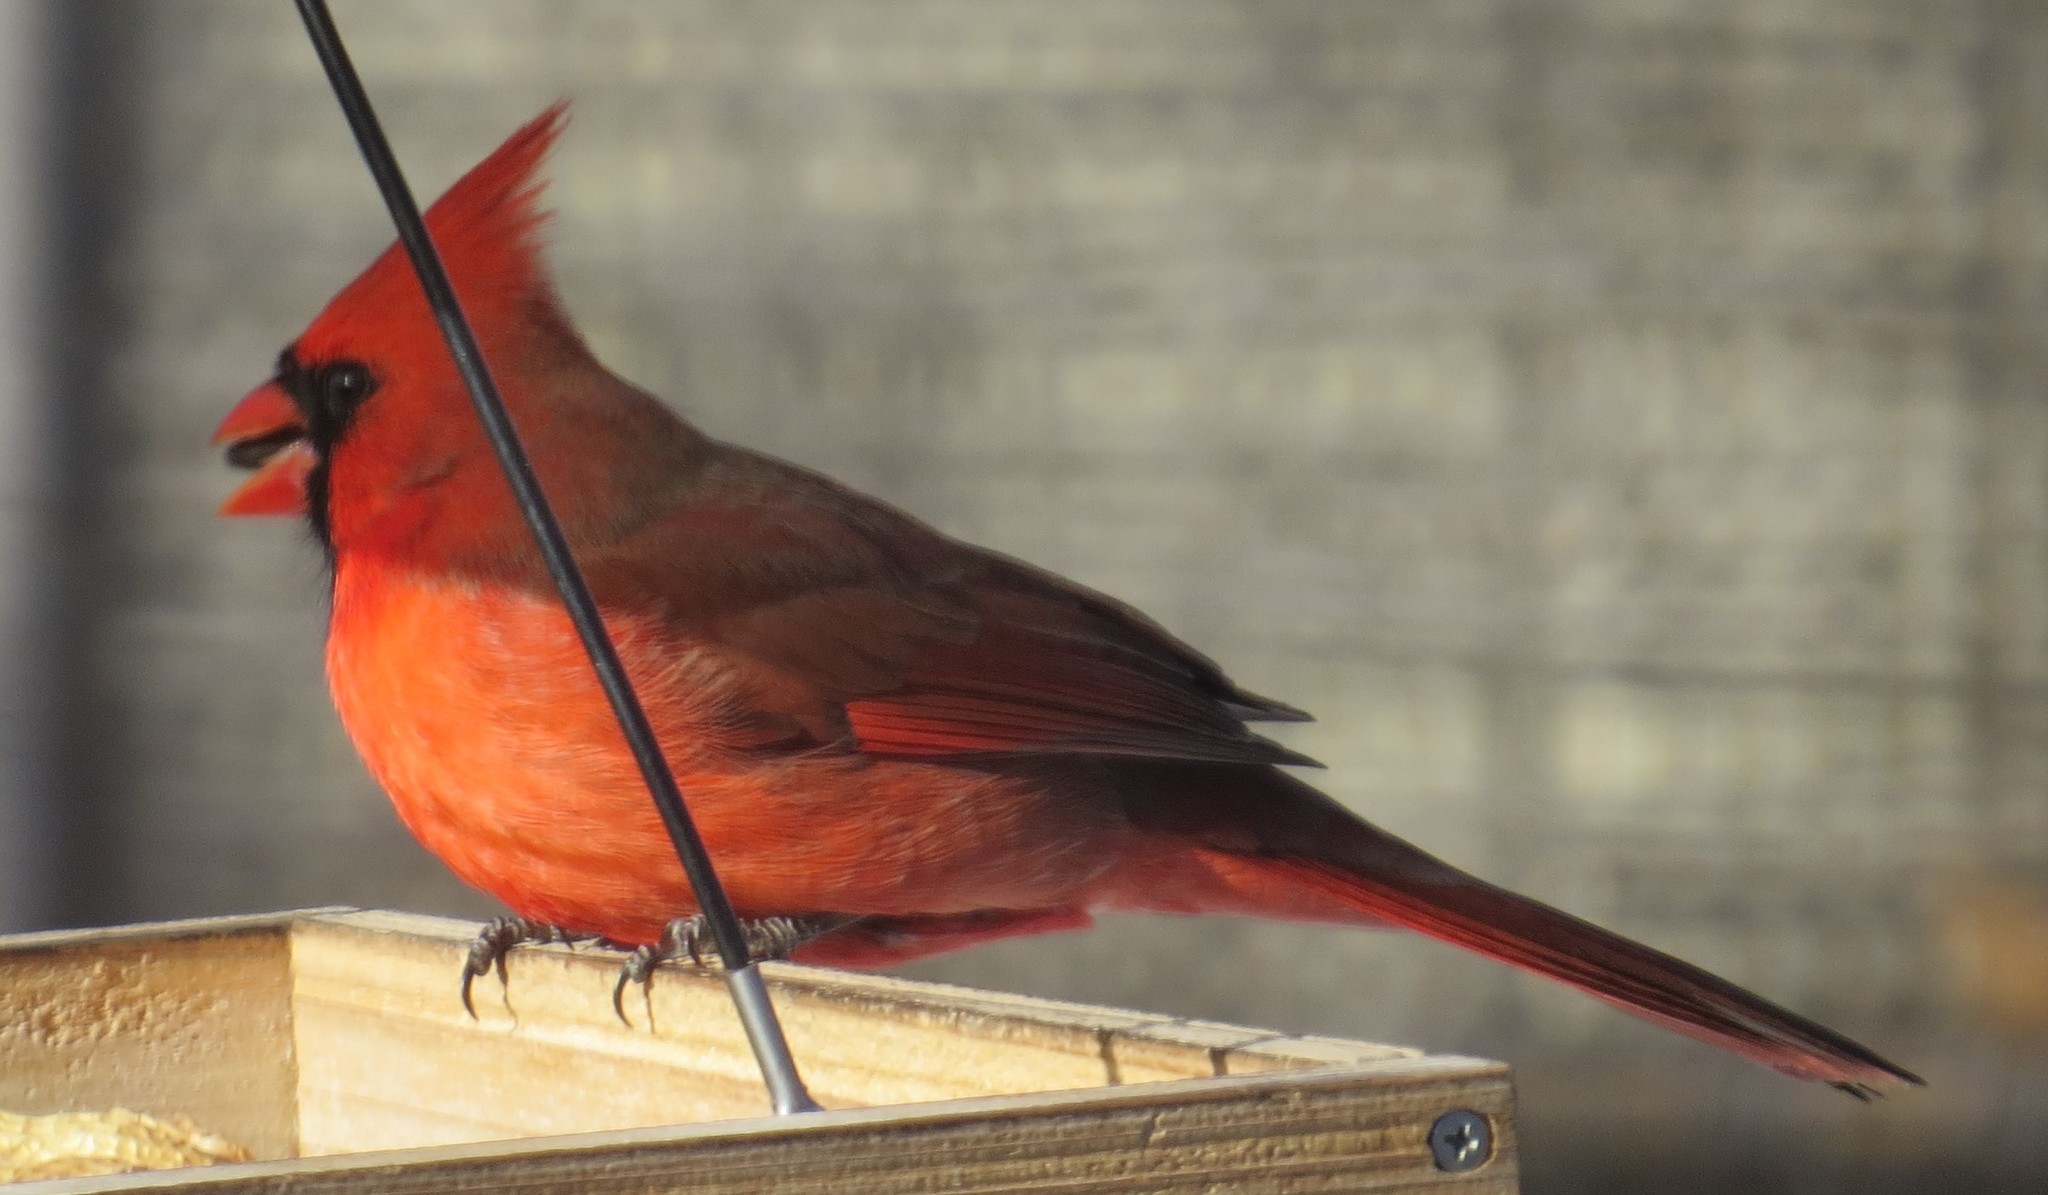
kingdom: Animalia
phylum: Chordata
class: Aves
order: Passeriformes
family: Cardinalidae
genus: Cardinalis
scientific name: Cardinalis cardinalis
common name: Northern cardinal
